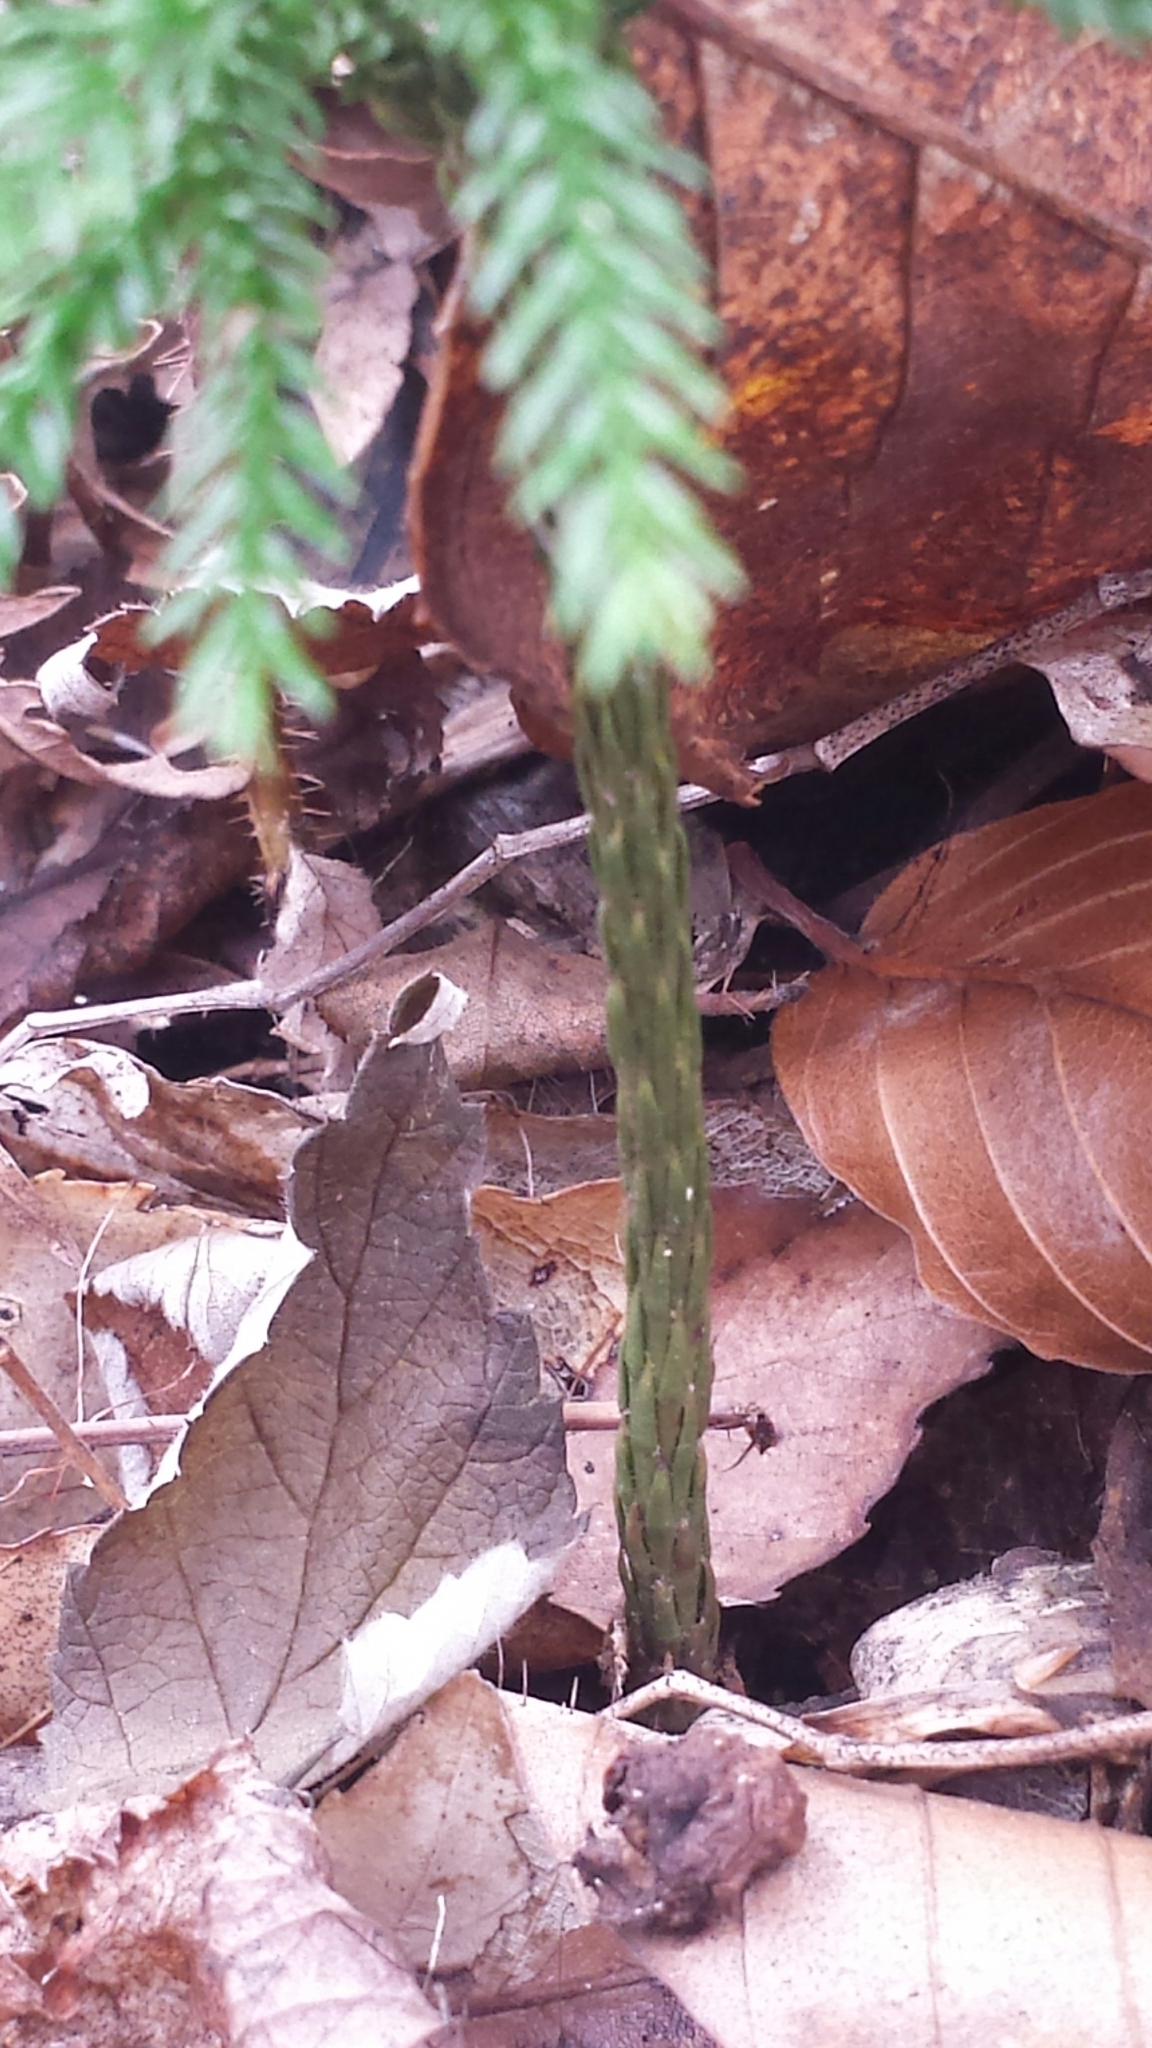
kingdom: Plantae
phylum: Tracheophyta
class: Lycopodiopsida
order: Lycopodiales
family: Lycopodiaceae
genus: Dendrolycopodium
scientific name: Dendrolycopodium obscurum
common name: Common ground-pine
